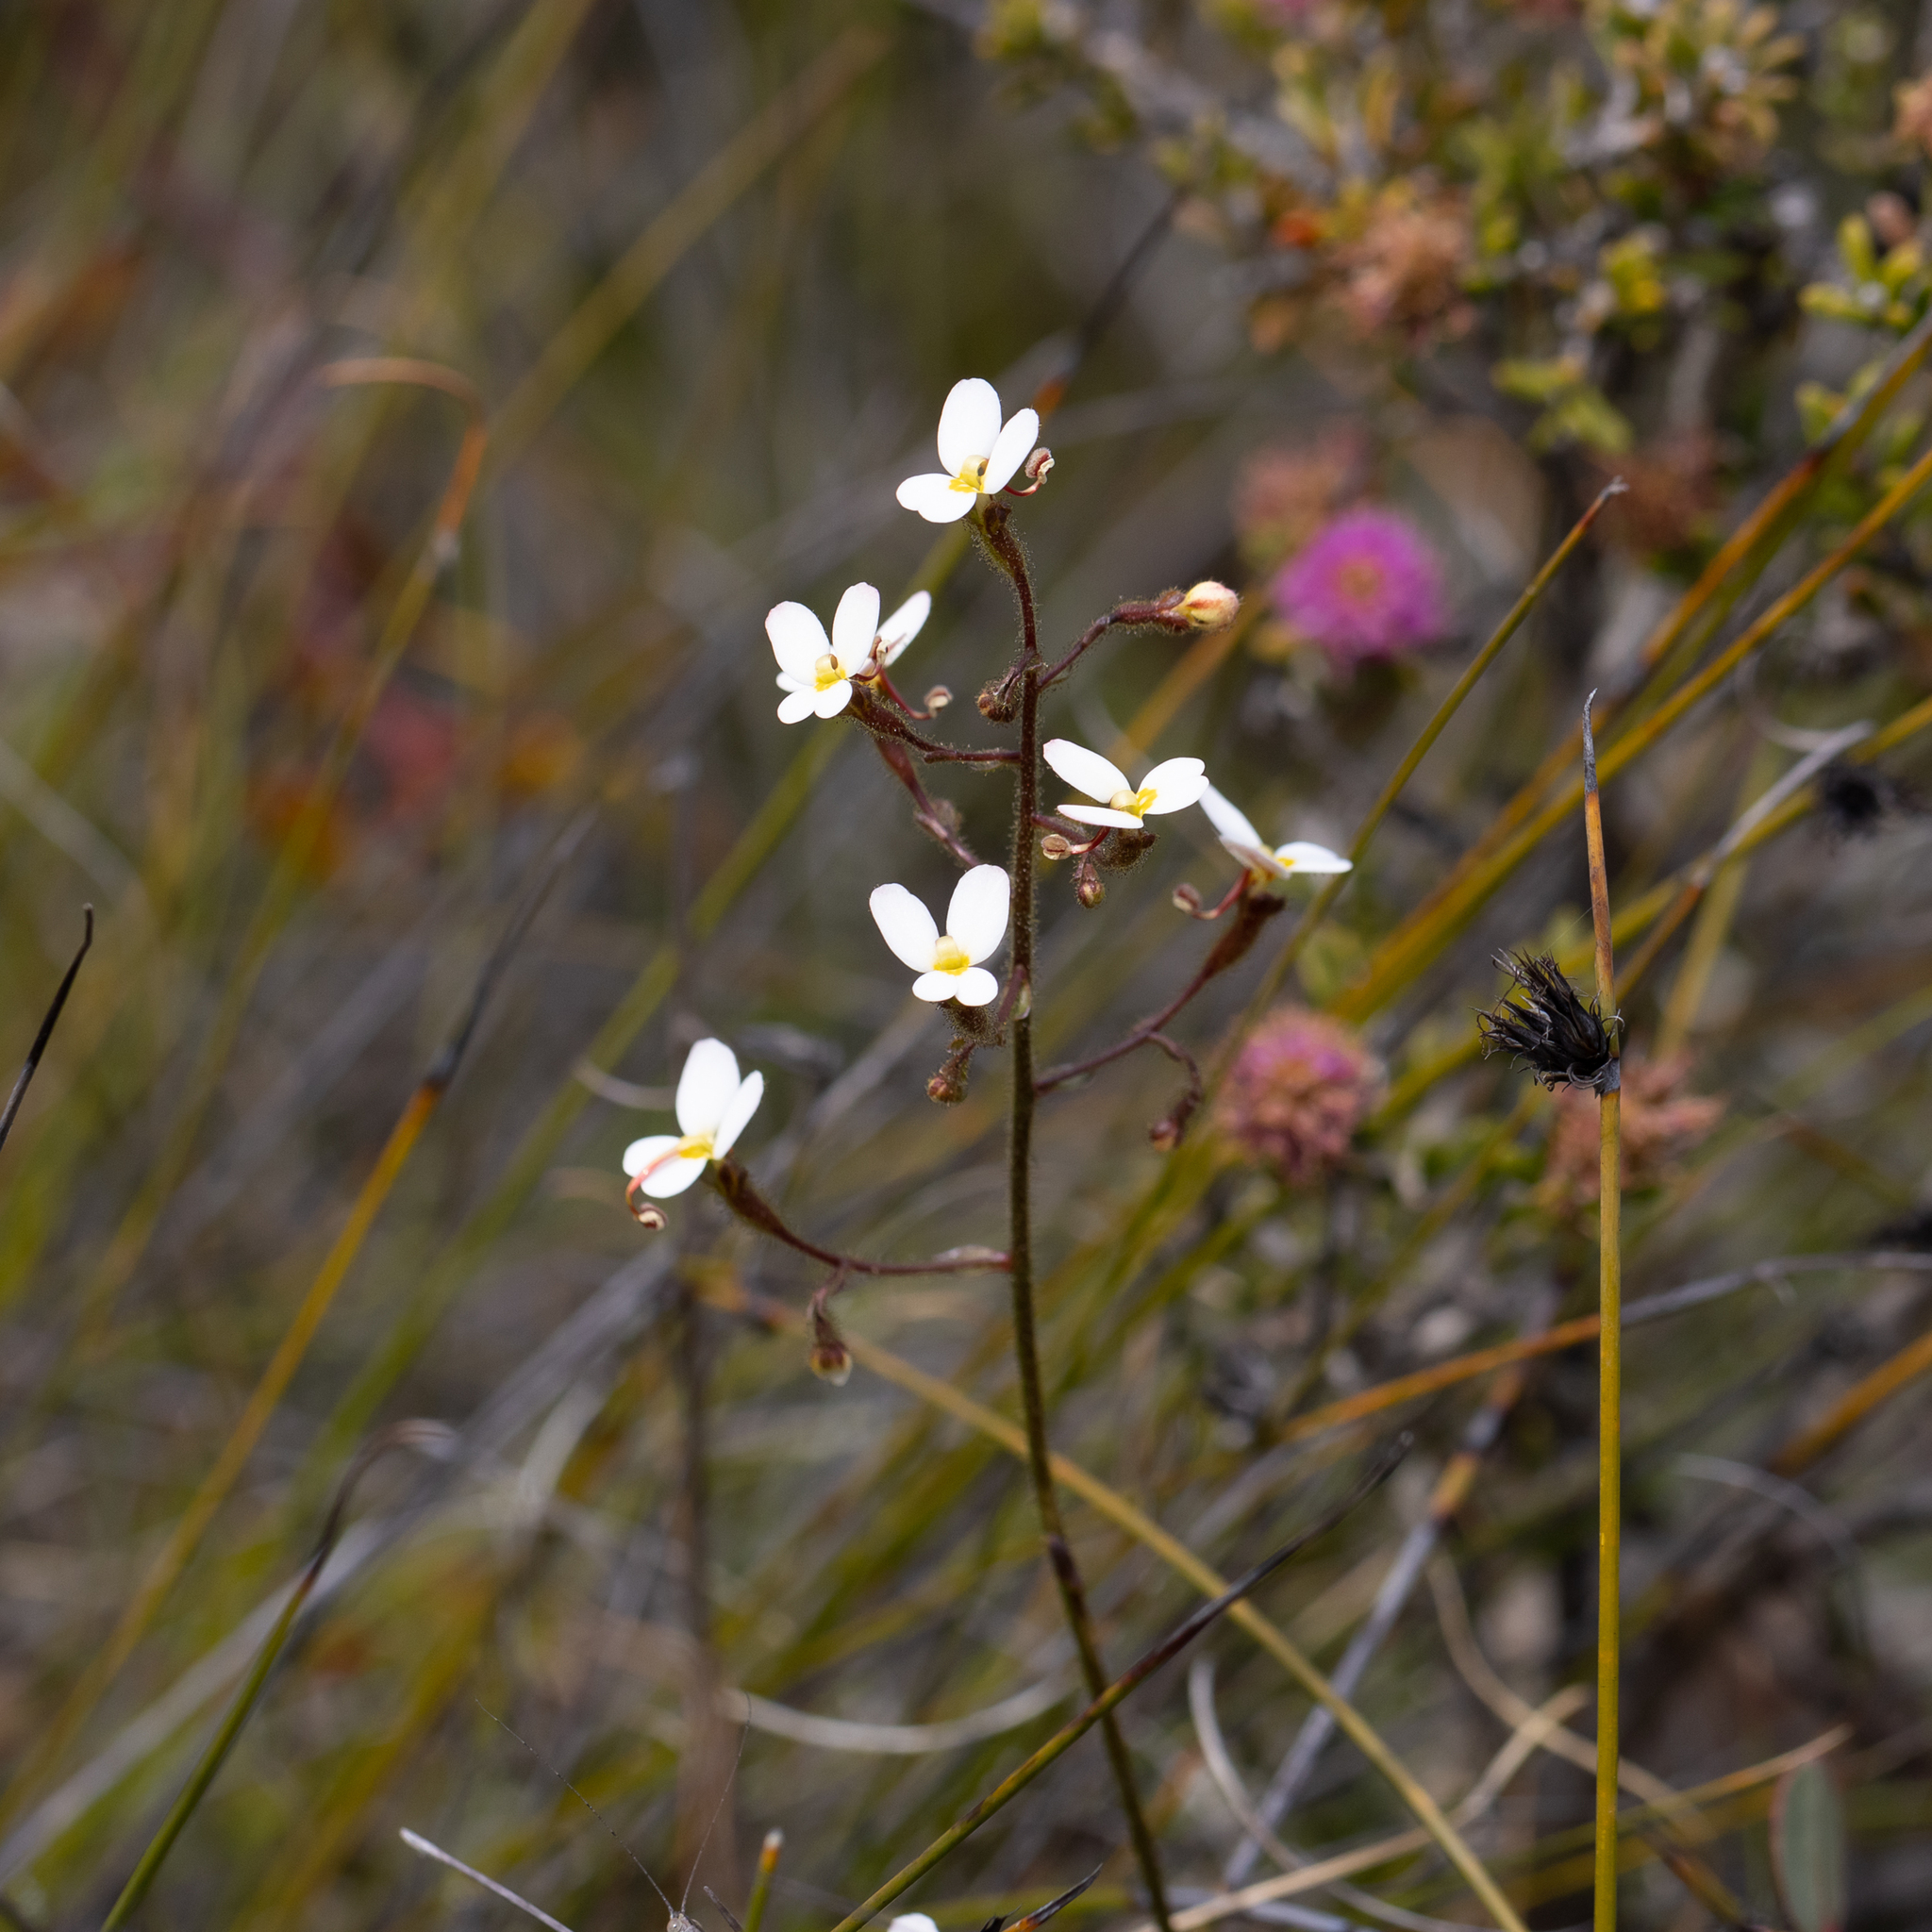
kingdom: Plantae
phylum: Tracheophyta
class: Magnoliopsida
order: Asterales
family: Stylidiaceae
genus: Stylidium
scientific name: Stylidium piliferum
